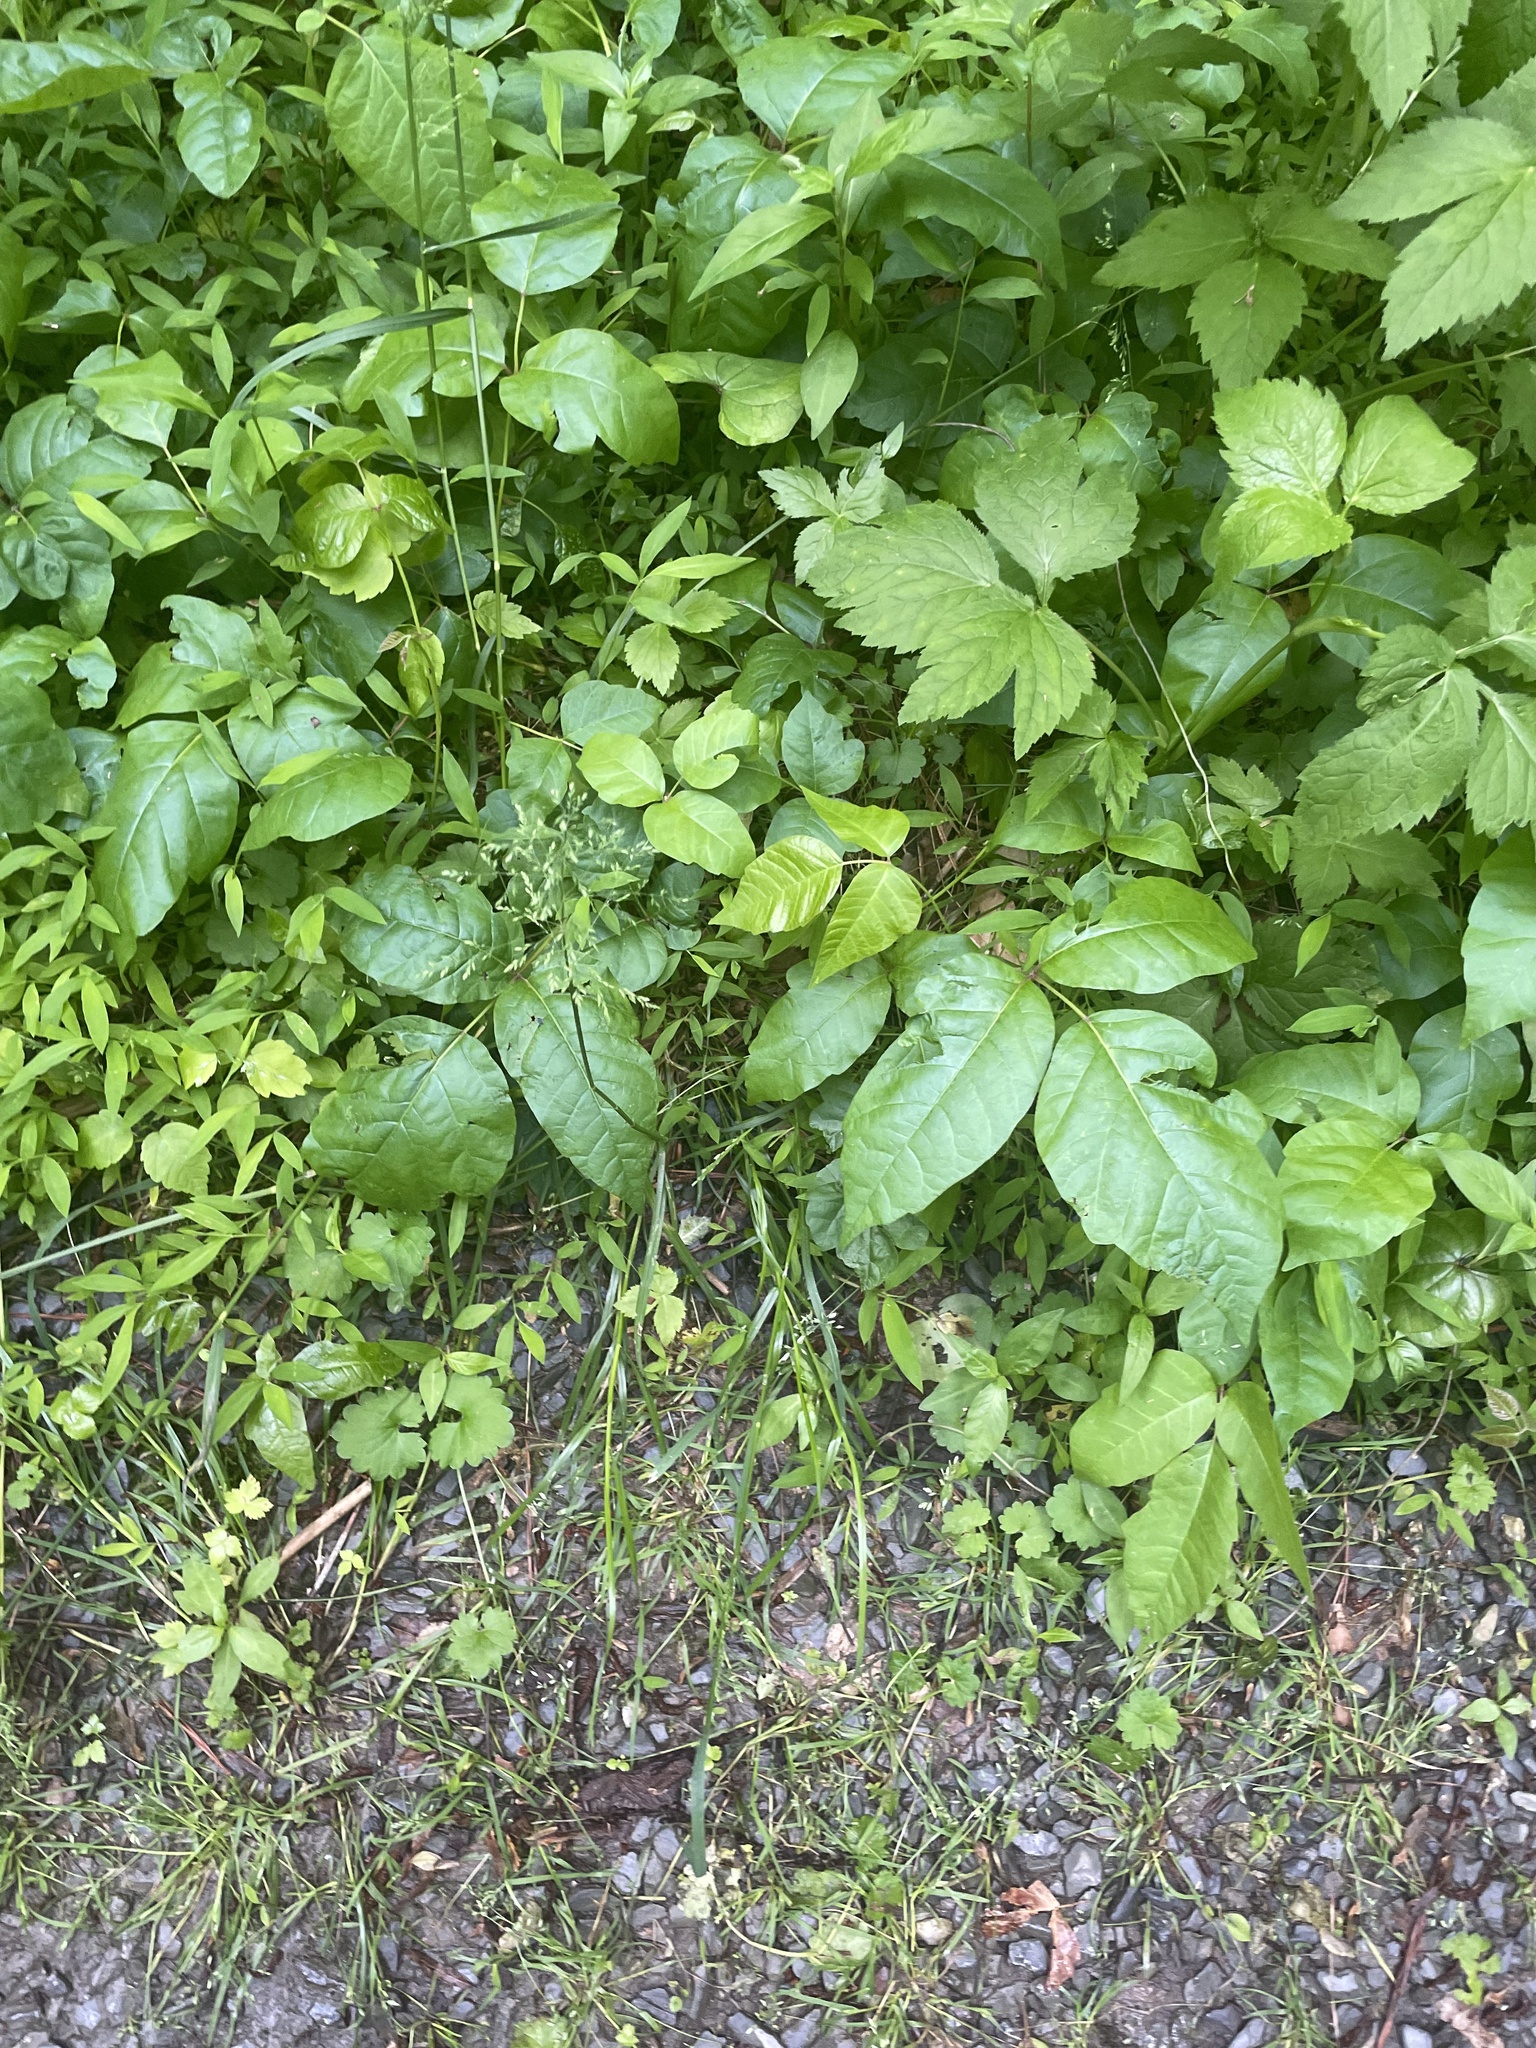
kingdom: Plantae
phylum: Tracheophyta
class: Magnoliopsida
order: Sapindales
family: Anacardiaceae
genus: Toxicodendron
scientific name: Toxicodendron radicans
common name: Poison ivy
